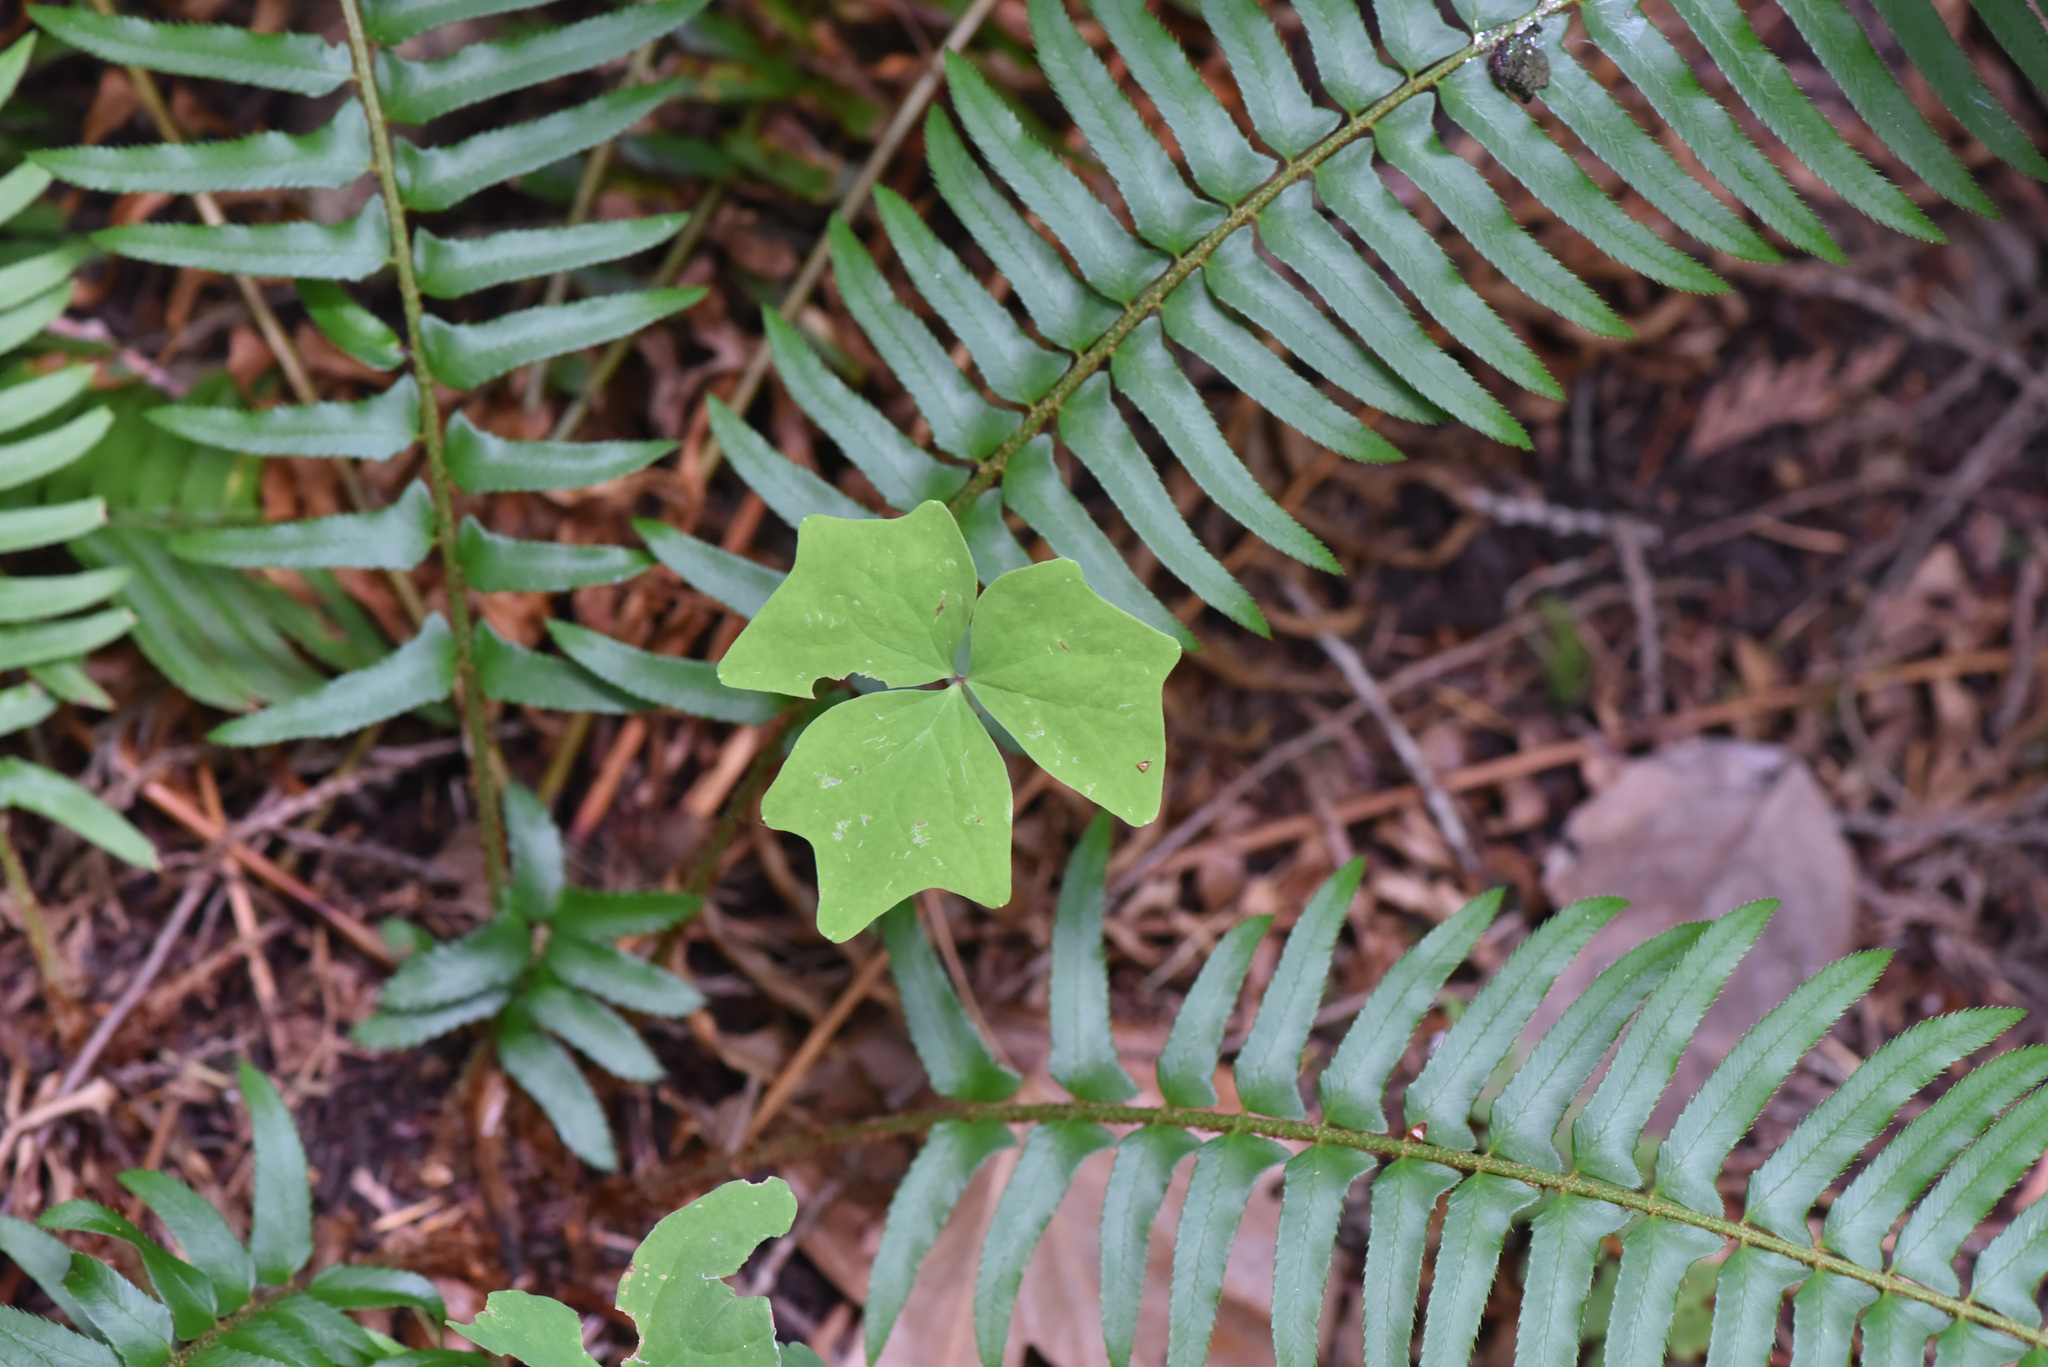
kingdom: Plantae
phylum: Tracheophyta
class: Magnoliopsida
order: Ranunculales
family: Berberidaceae
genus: Achlys
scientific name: Achlys triphylla
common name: Vanilla-leaf
